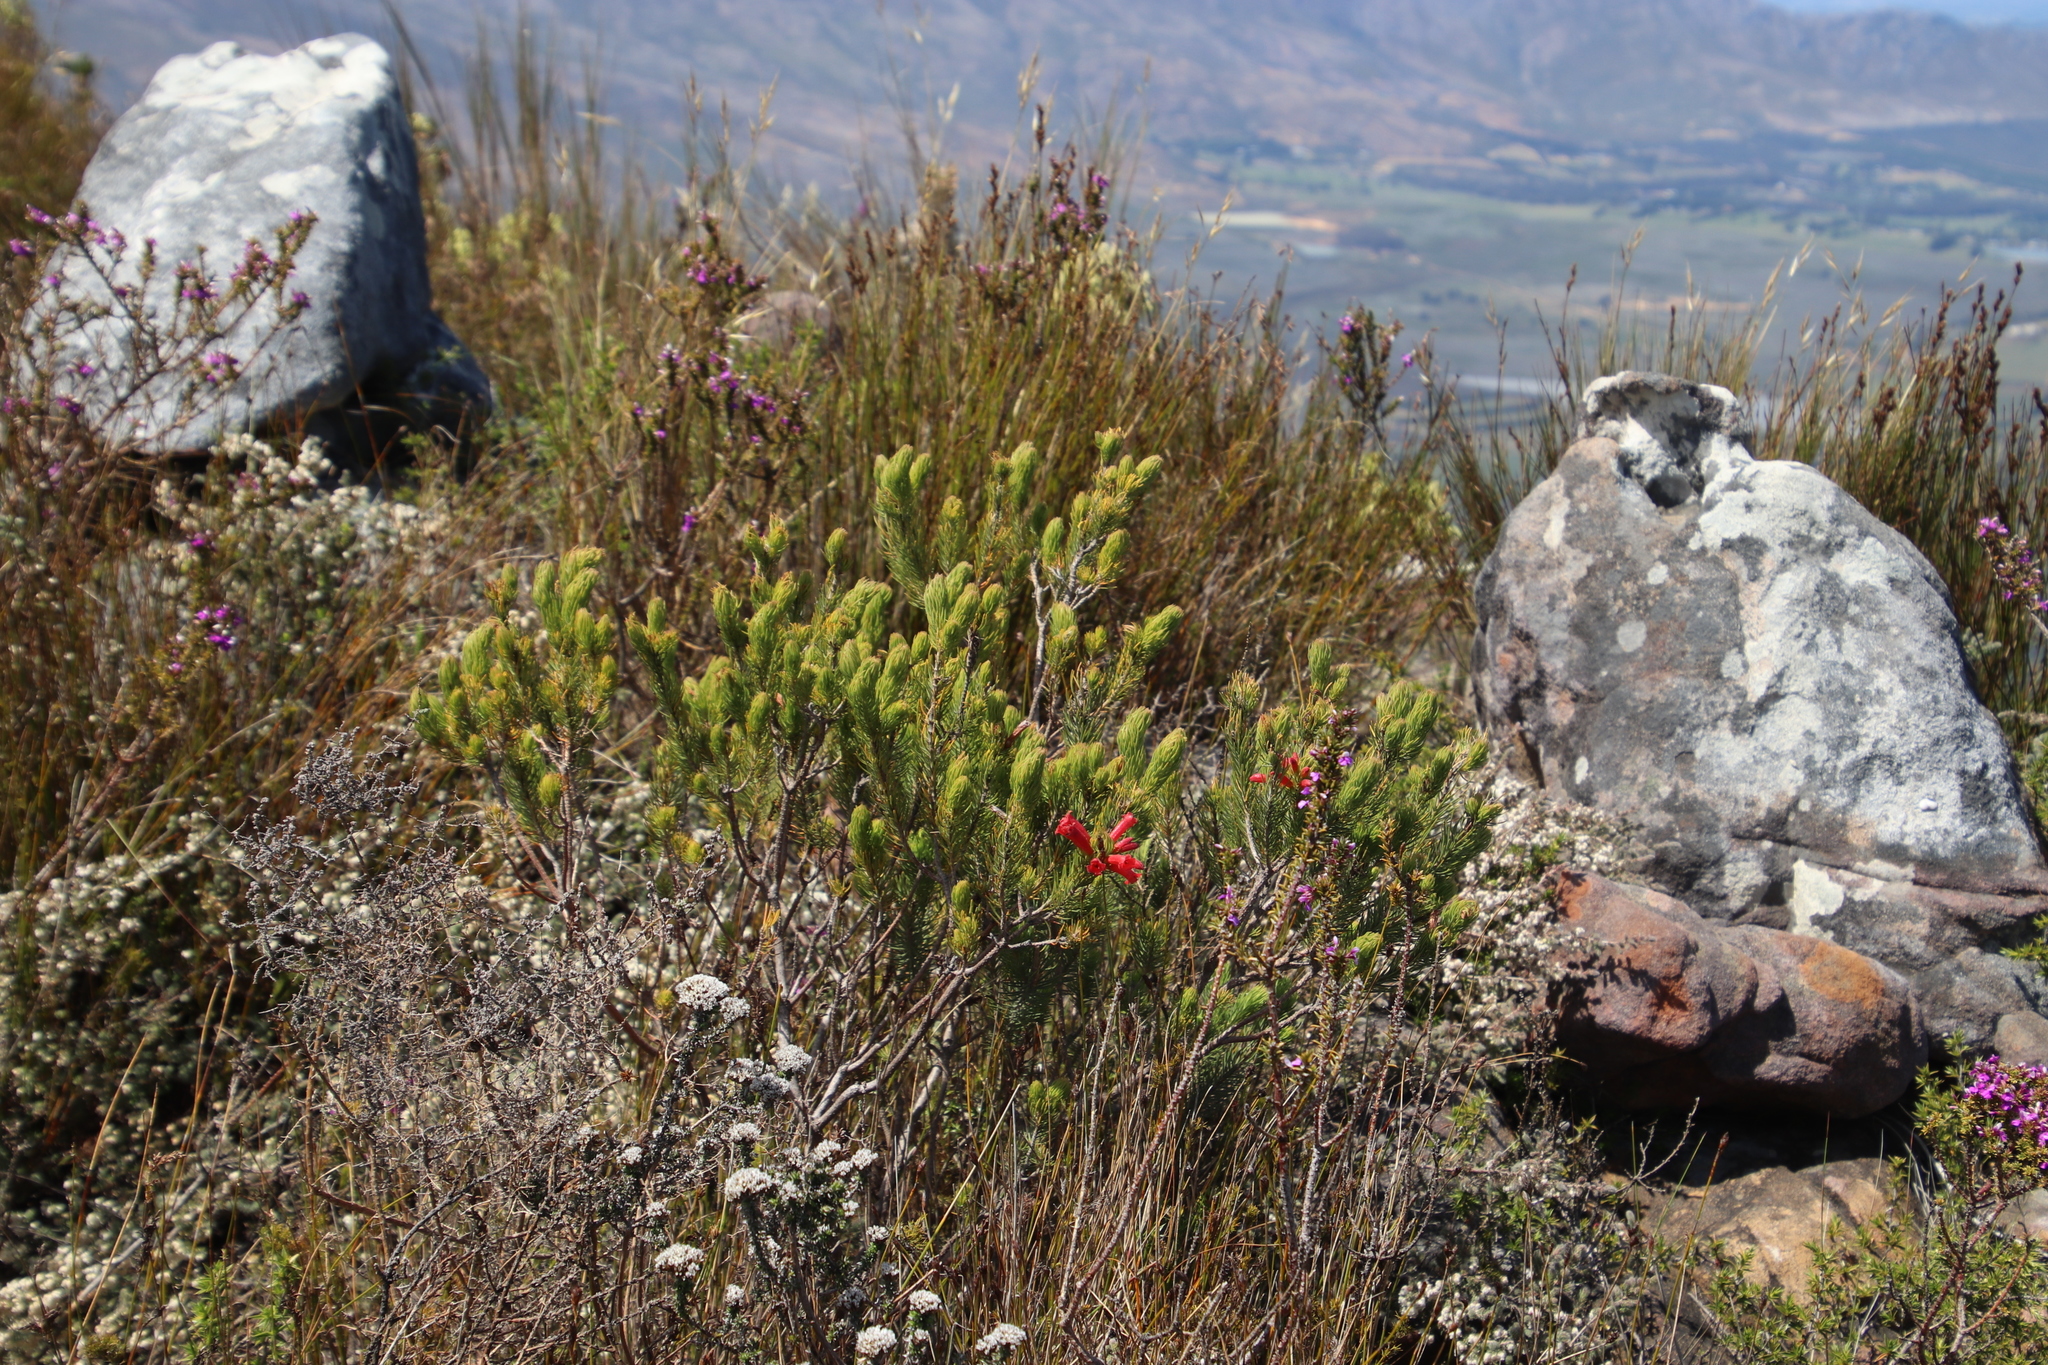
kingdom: Plantae
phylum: Tracheophyta
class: Magnoliopsida
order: Ericales
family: Ericaceae
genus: Erica
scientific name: Erica viscaria
